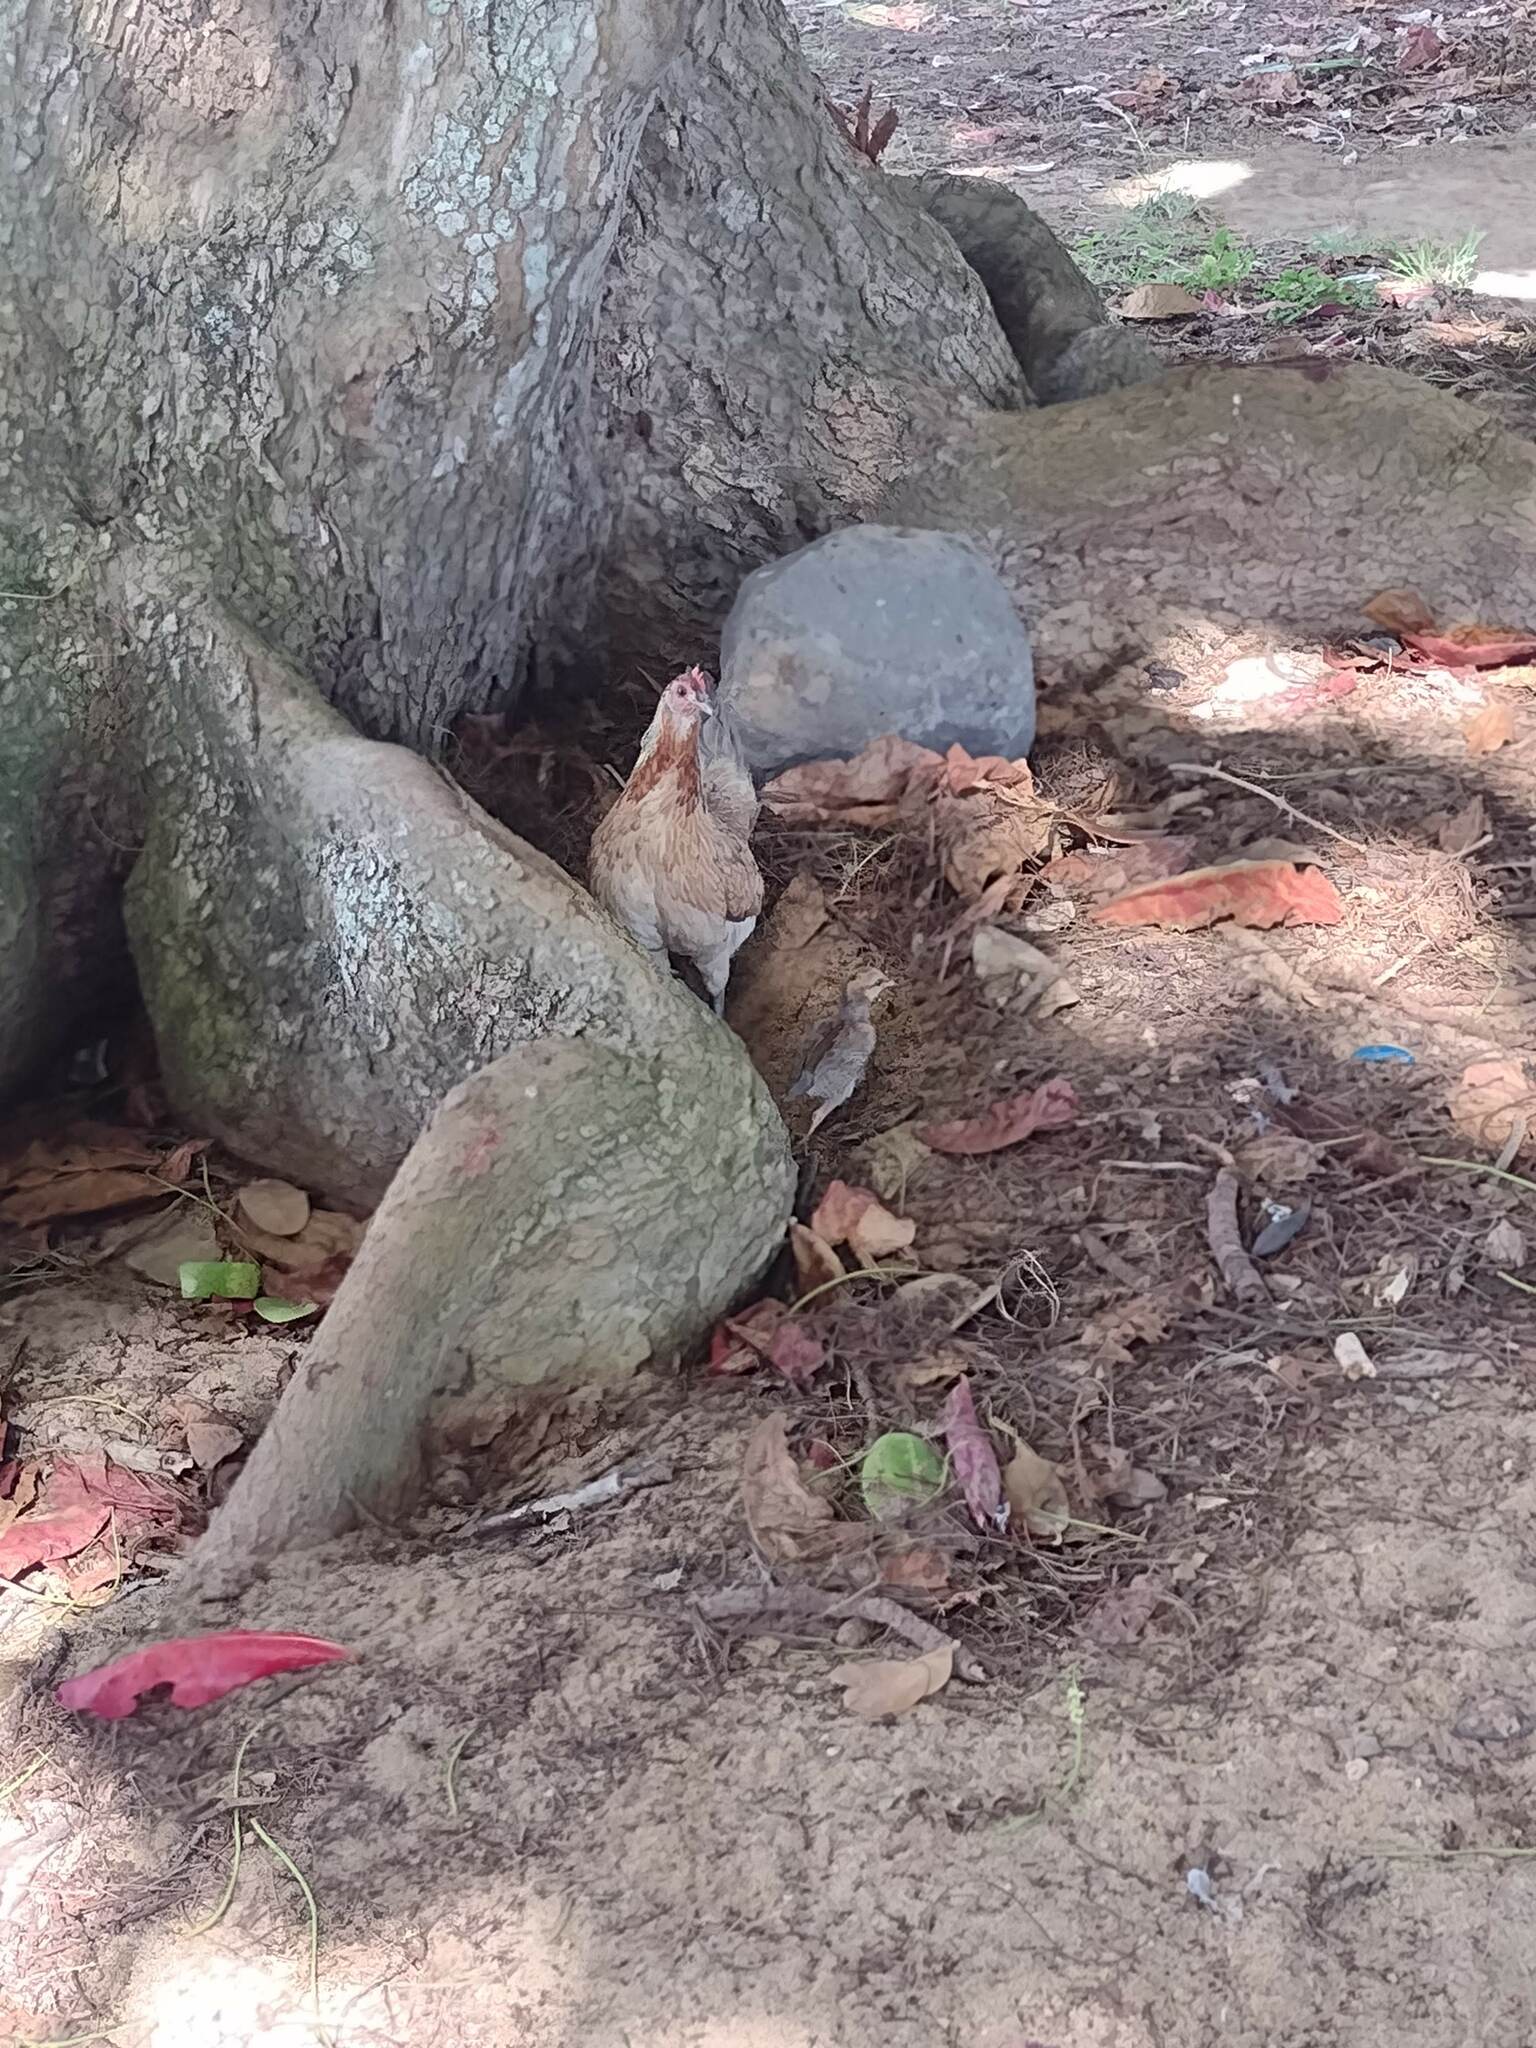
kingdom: Animalia
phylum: Chordata
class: Aves
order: Galliformes
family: Phasianidae
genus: Gallus
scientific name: Gallus gallus
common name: Red junglefowl
